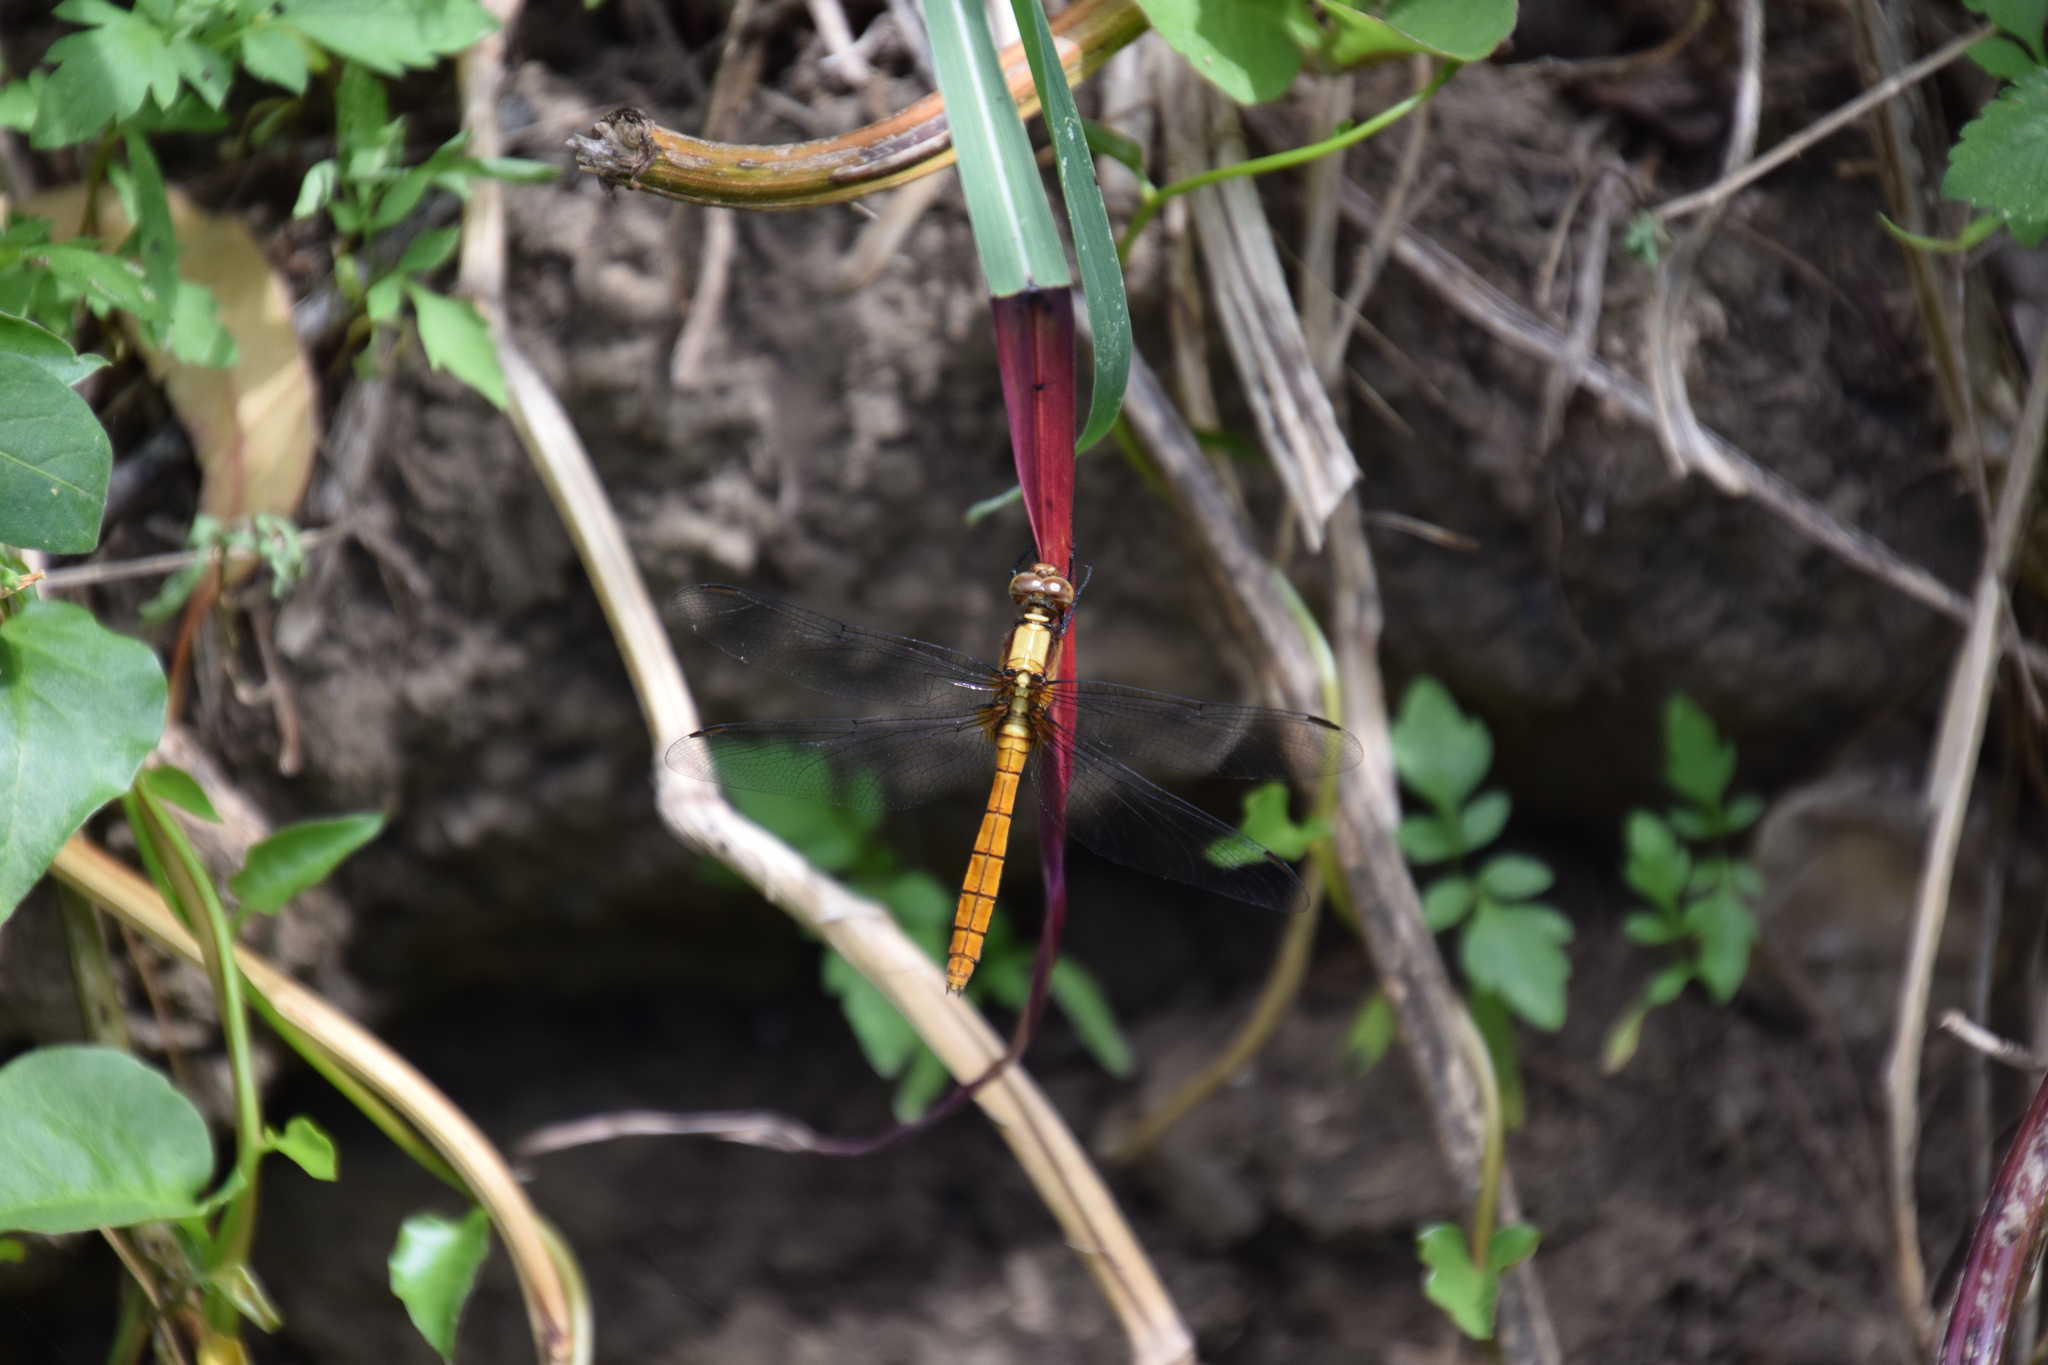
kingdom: Animalia
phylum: Arthropoda
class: Insecta
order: Odonata
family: Libellulidae
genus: Orthetrum
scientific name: Orthetrum villosovittatum
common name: Firery skimmer
